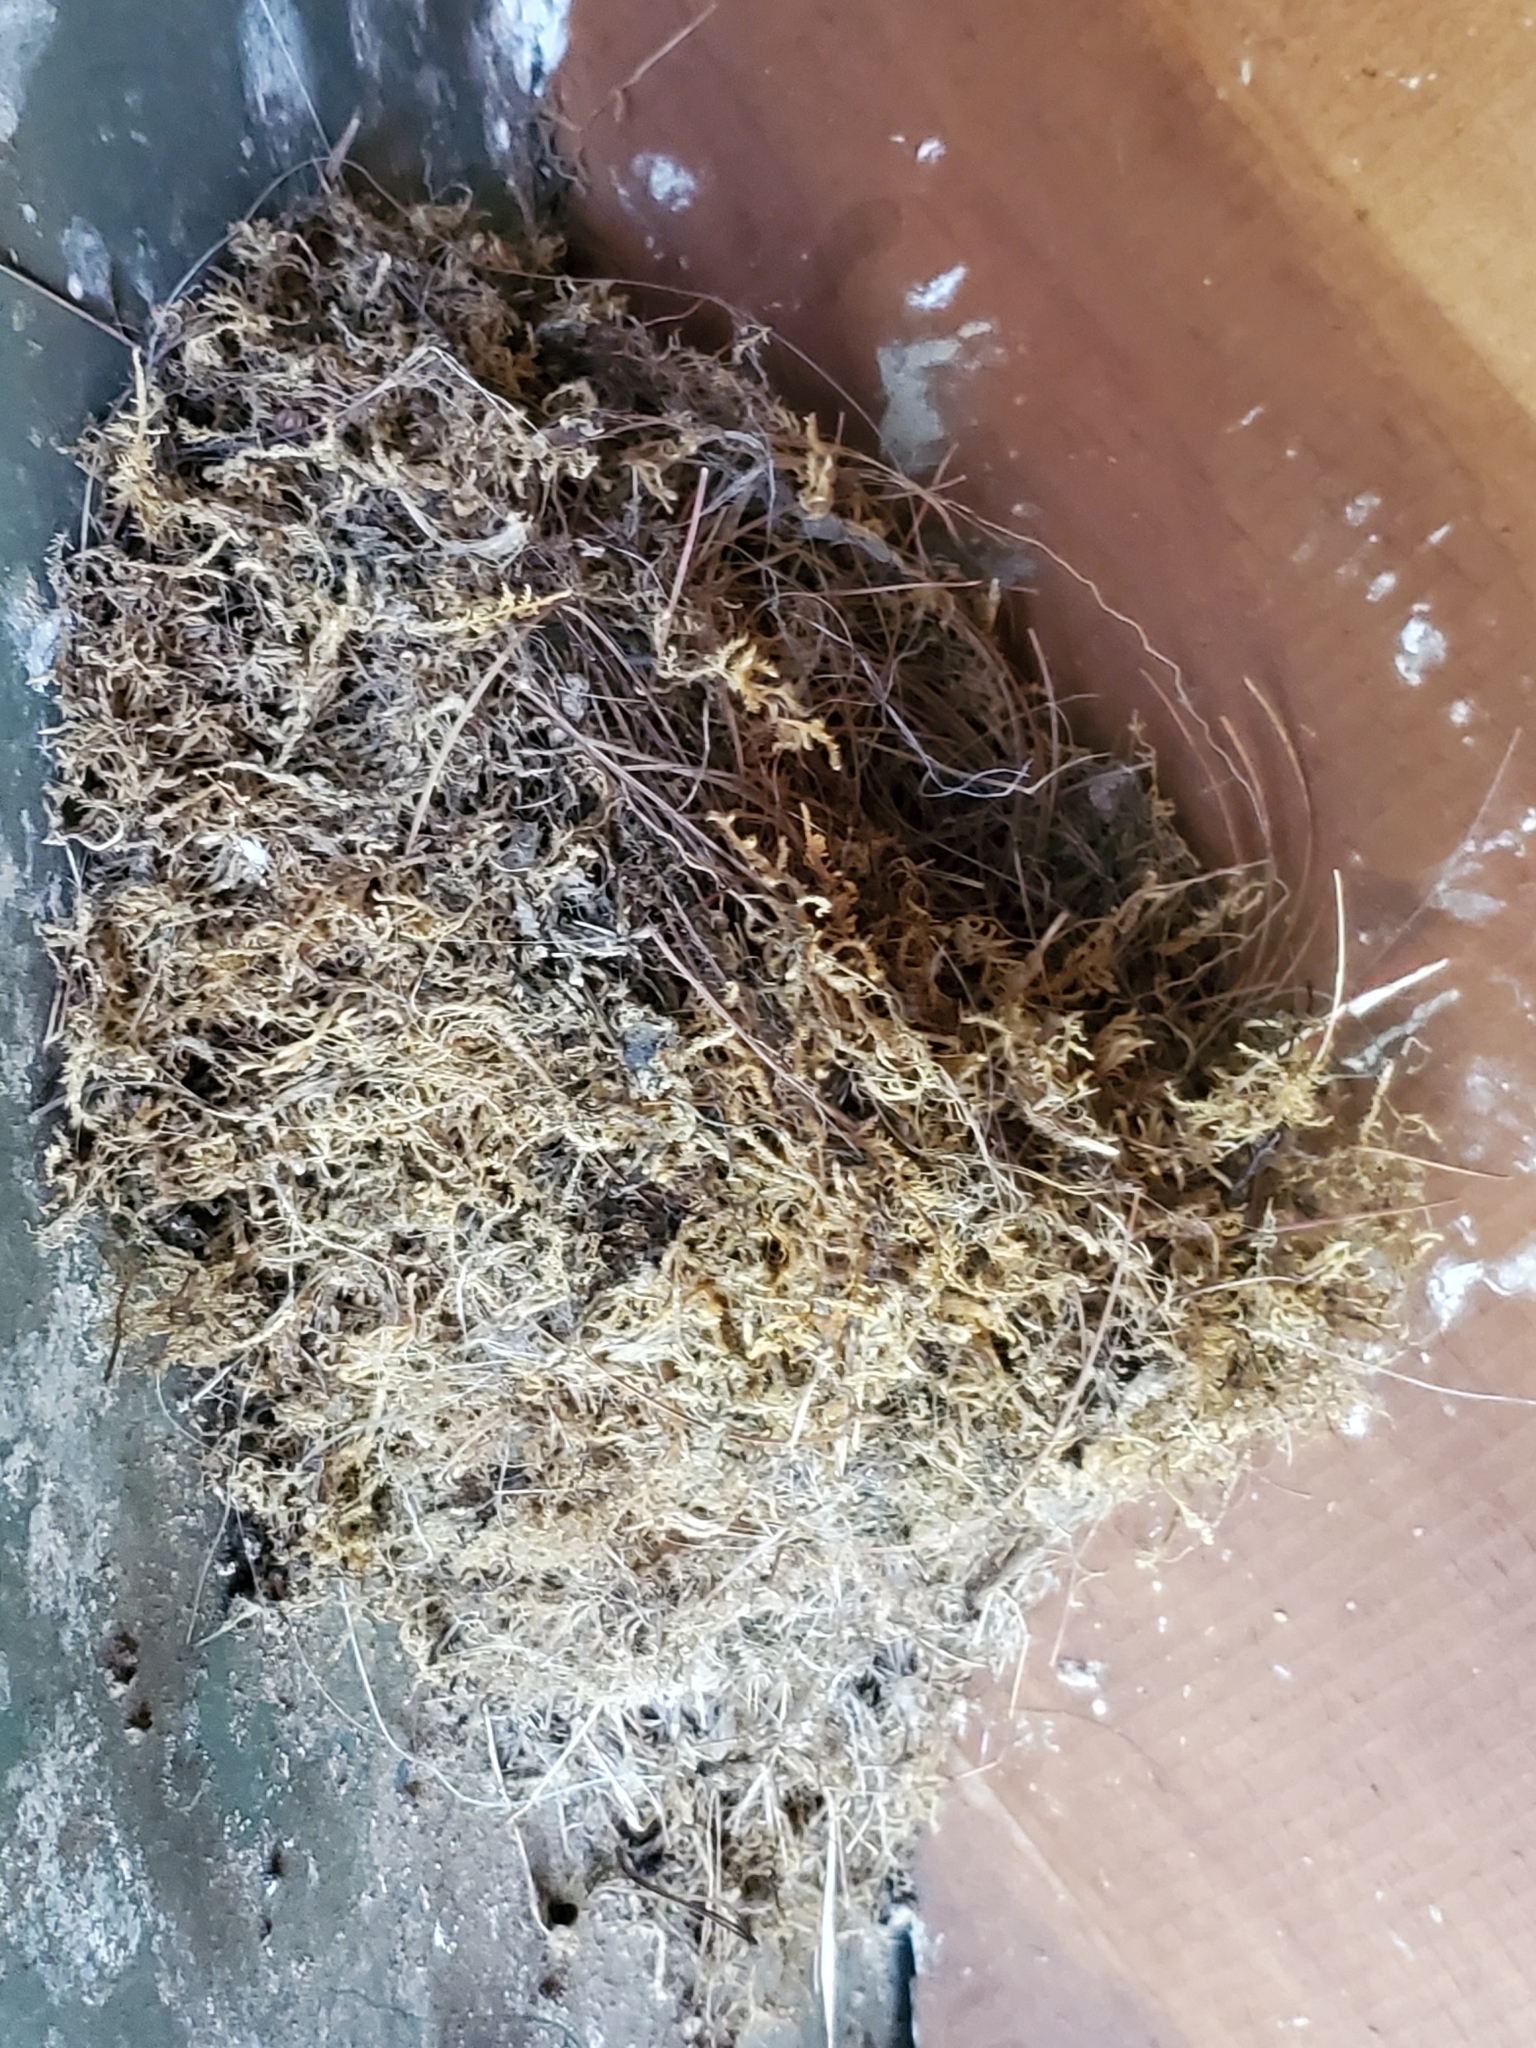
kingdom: Animalia
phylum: Chordata
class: Aves
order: Passeriformes
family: Tyrannidae
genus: Sayornis
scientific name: Sayornis phoebe
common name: Eastern phoebe
